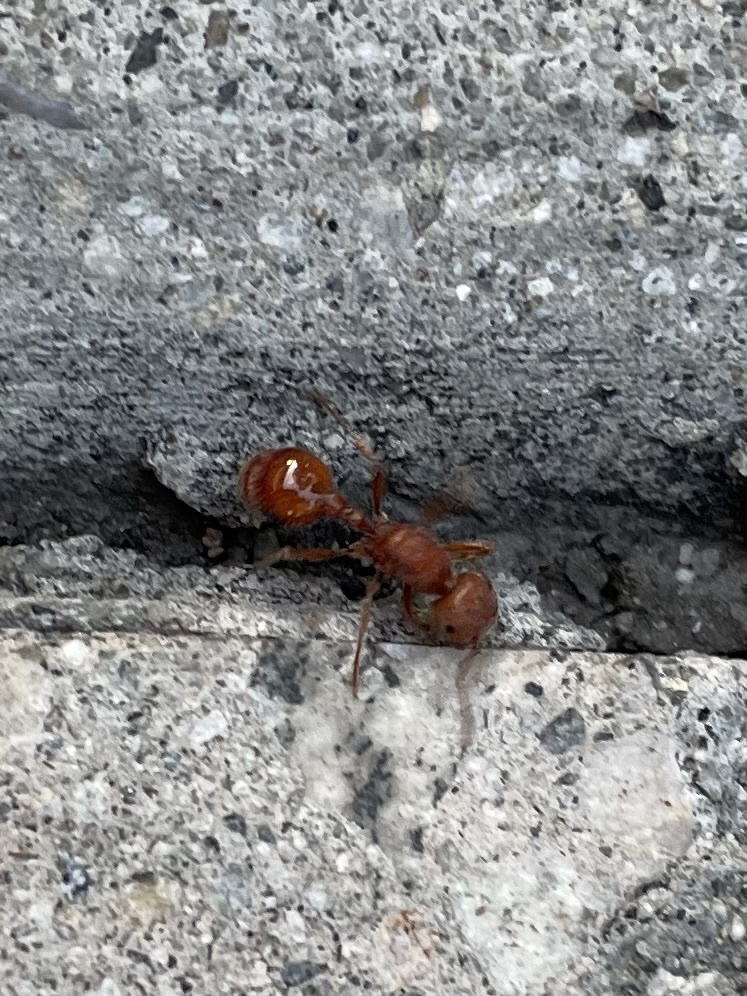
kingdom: Animalia
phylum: Arthropoda
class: Insecta
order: Hymenoptera
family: Formicidae
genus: Pogonomyrmex
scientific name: Pogonomyrmex subnitidus
